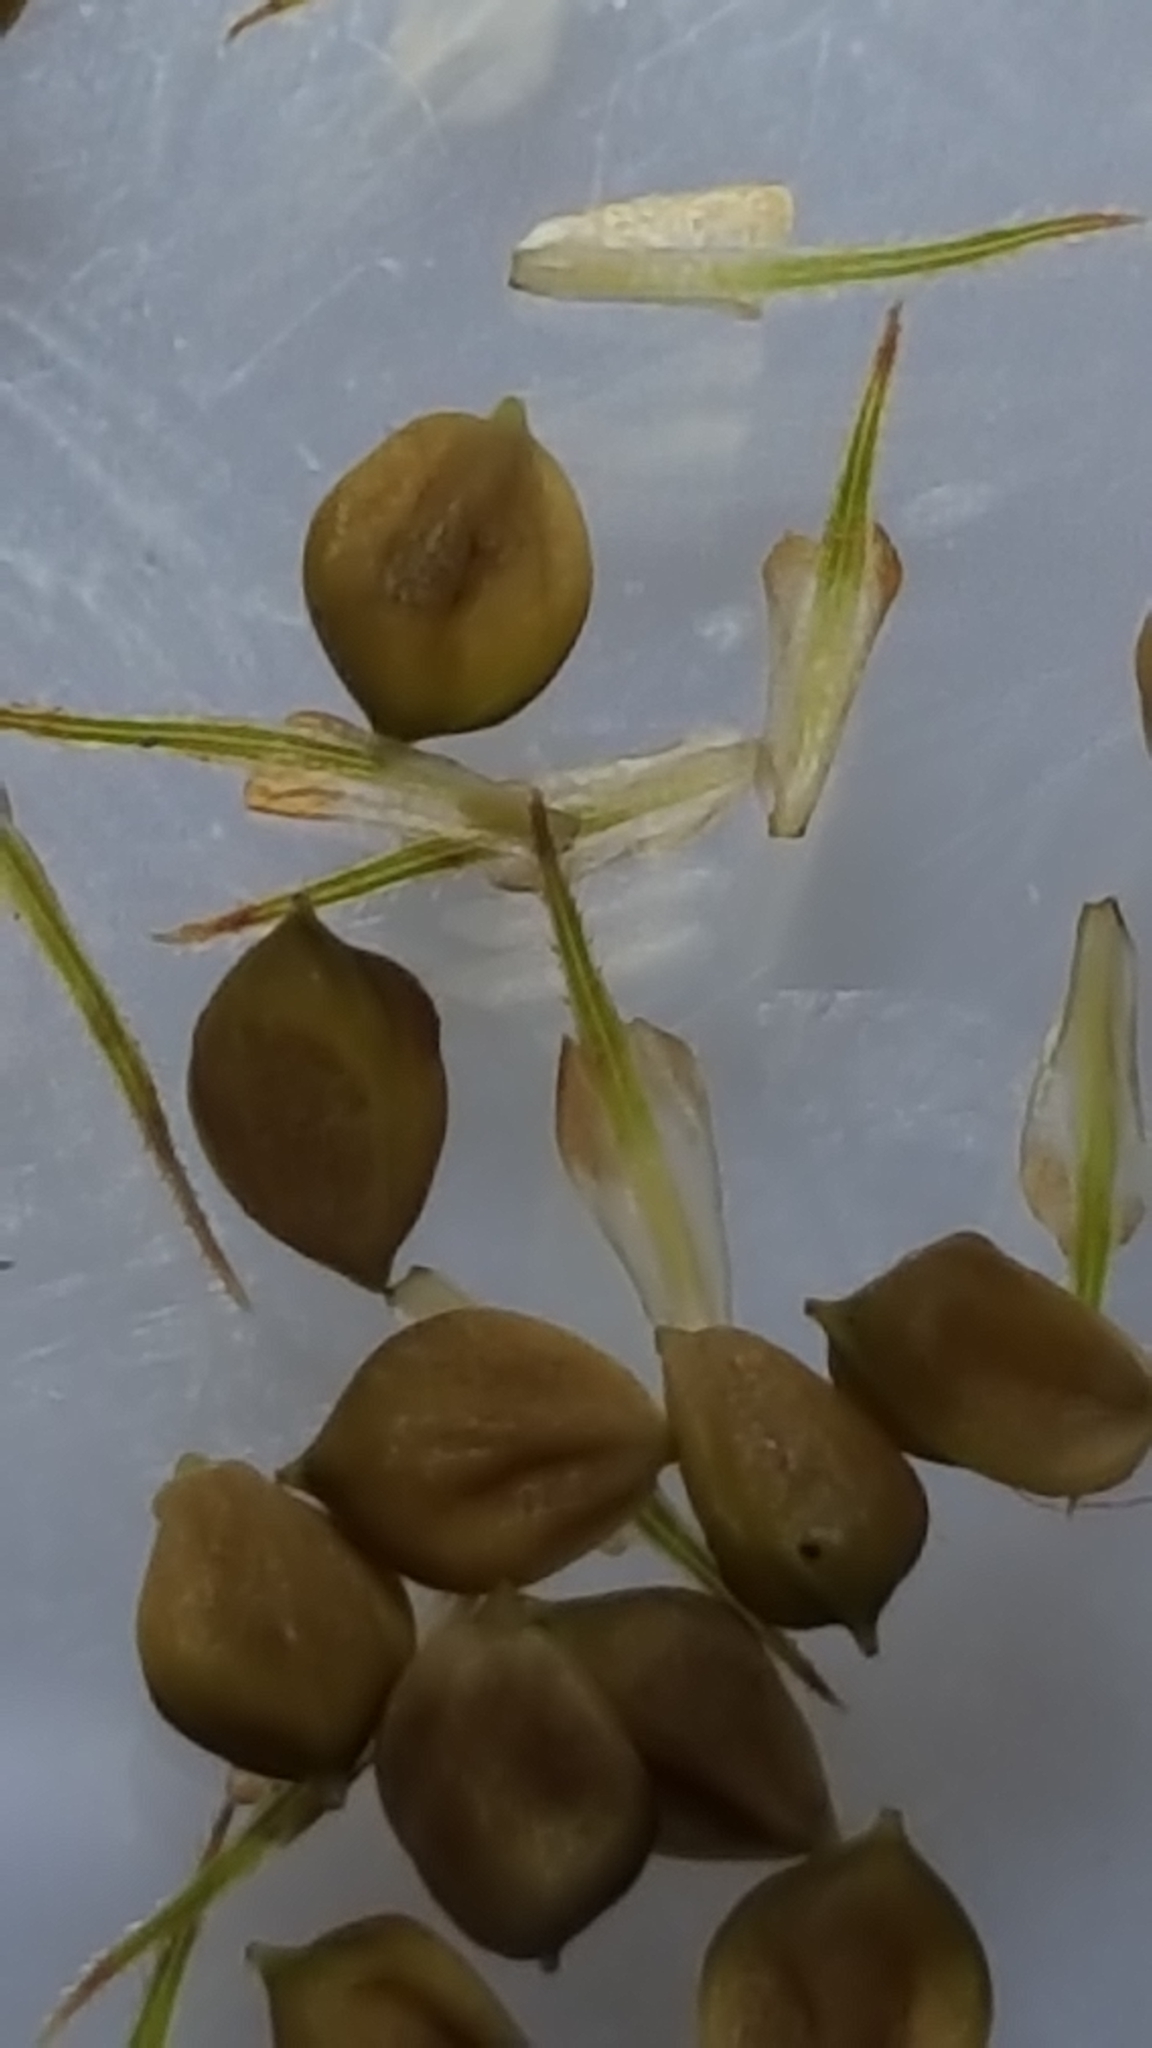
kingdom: Plantae
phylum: Tracheophyta
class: Liliopsida
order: Poales
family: Cyperaceae
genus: Carex
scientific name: Carex crinita
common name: Fringed sedge
